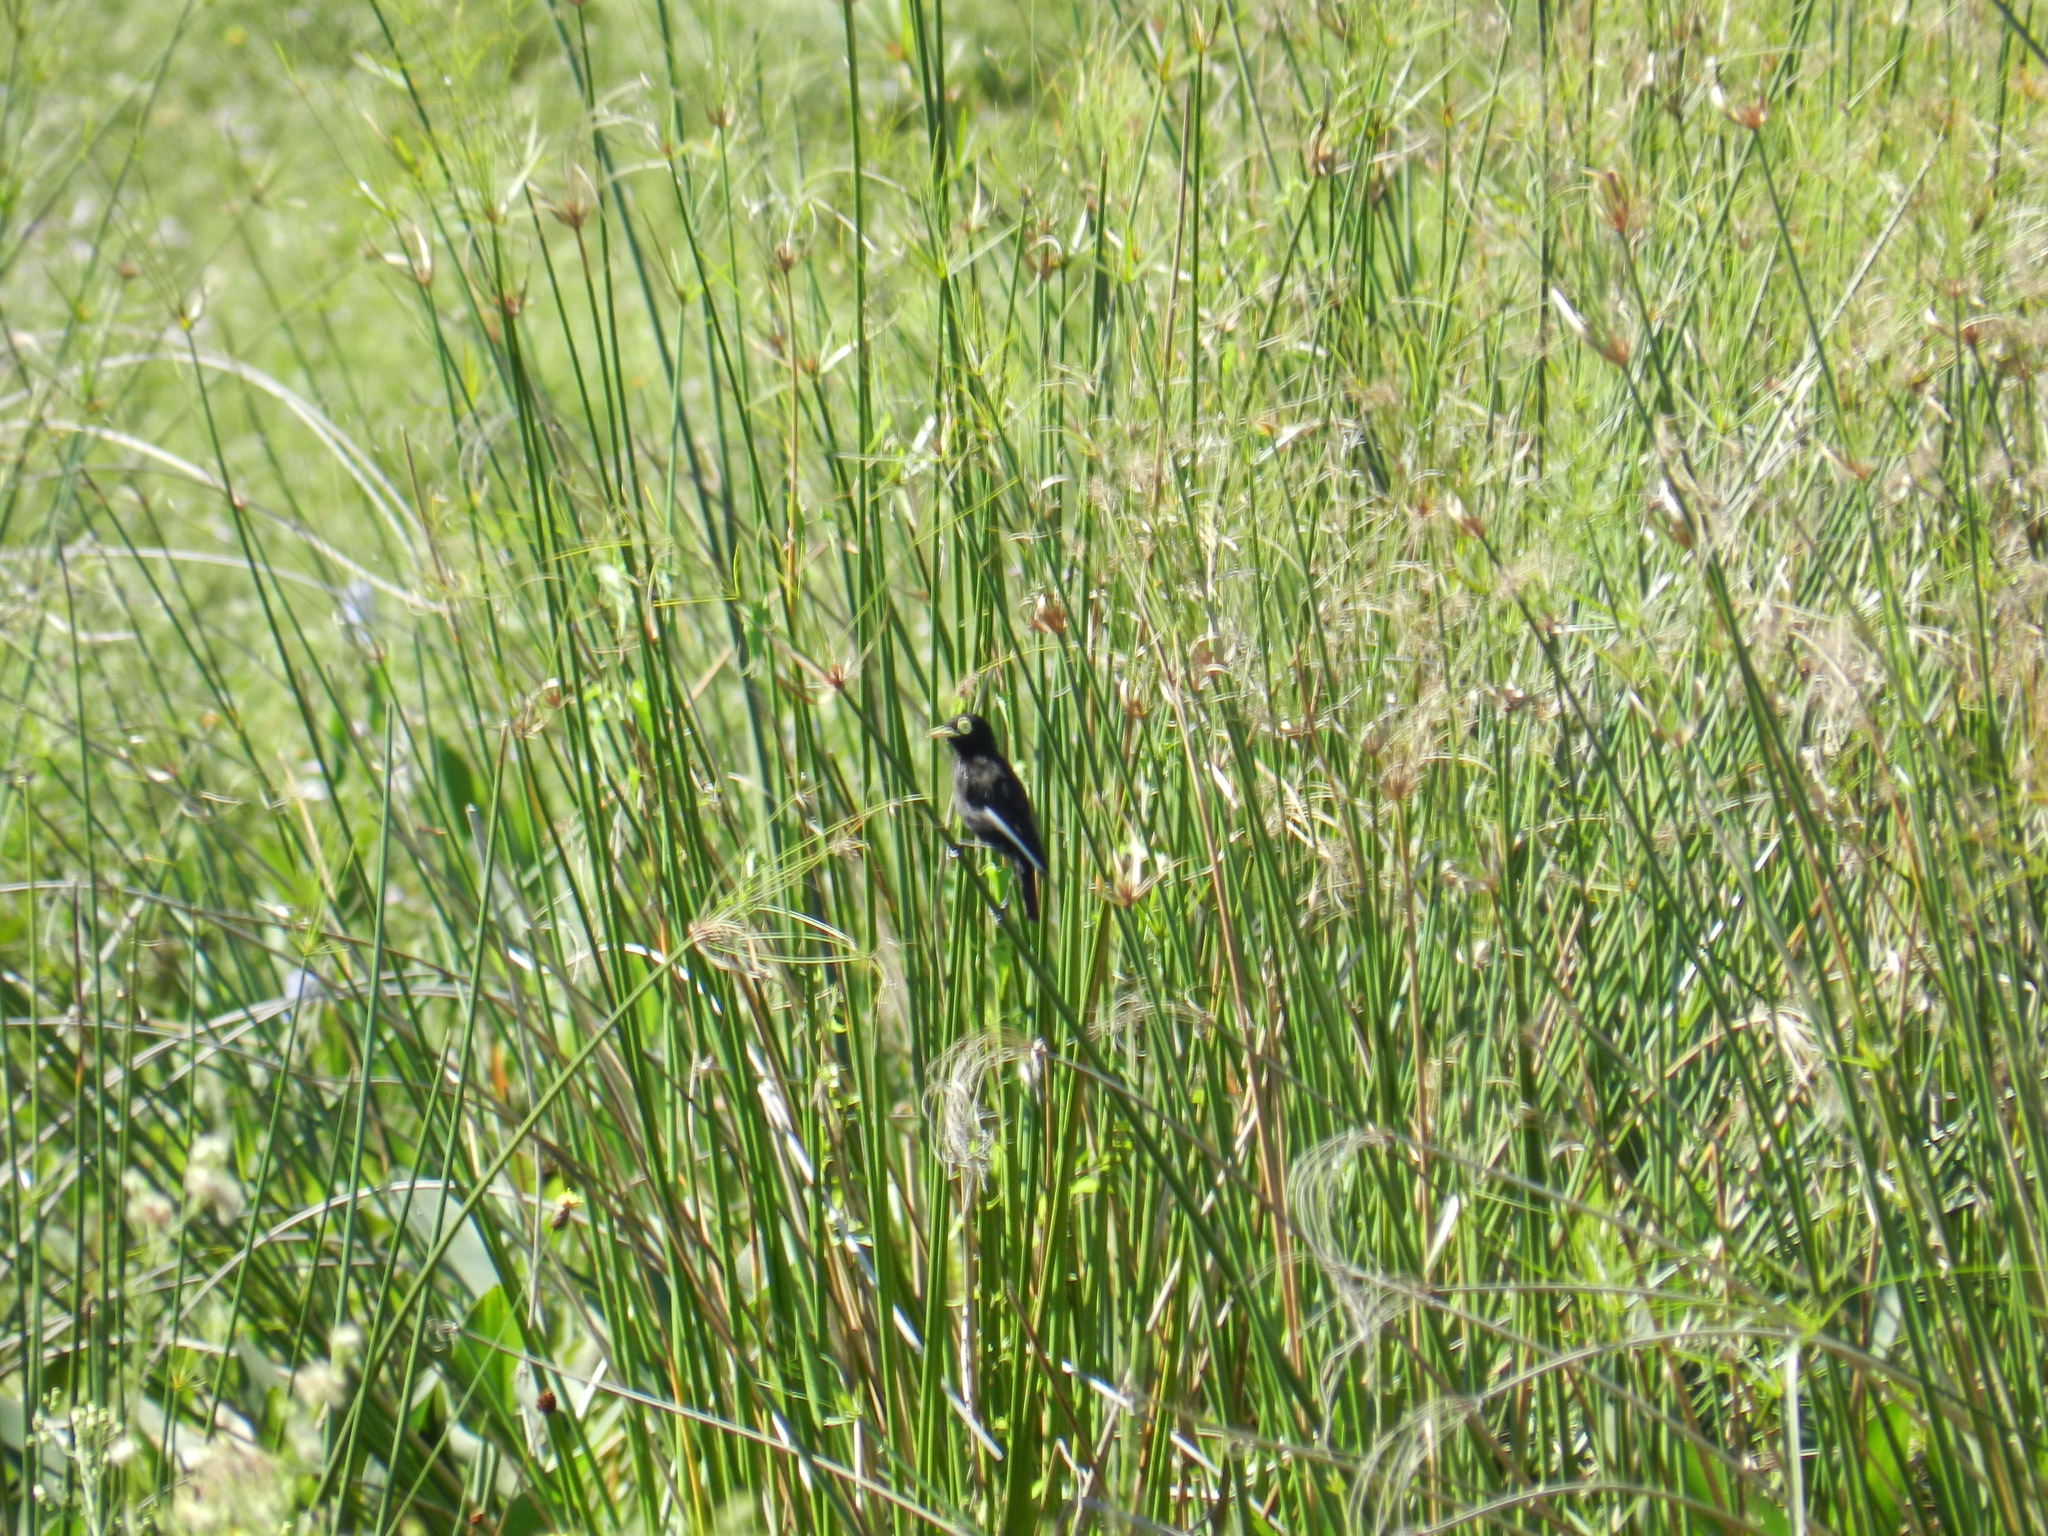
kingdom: Animalia
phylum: Chordata
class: Aves
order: Passeriformes
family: Tyrannidae
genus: Hymenops
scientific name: Hymenops perspicillatus
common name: Spectacled tyrant
